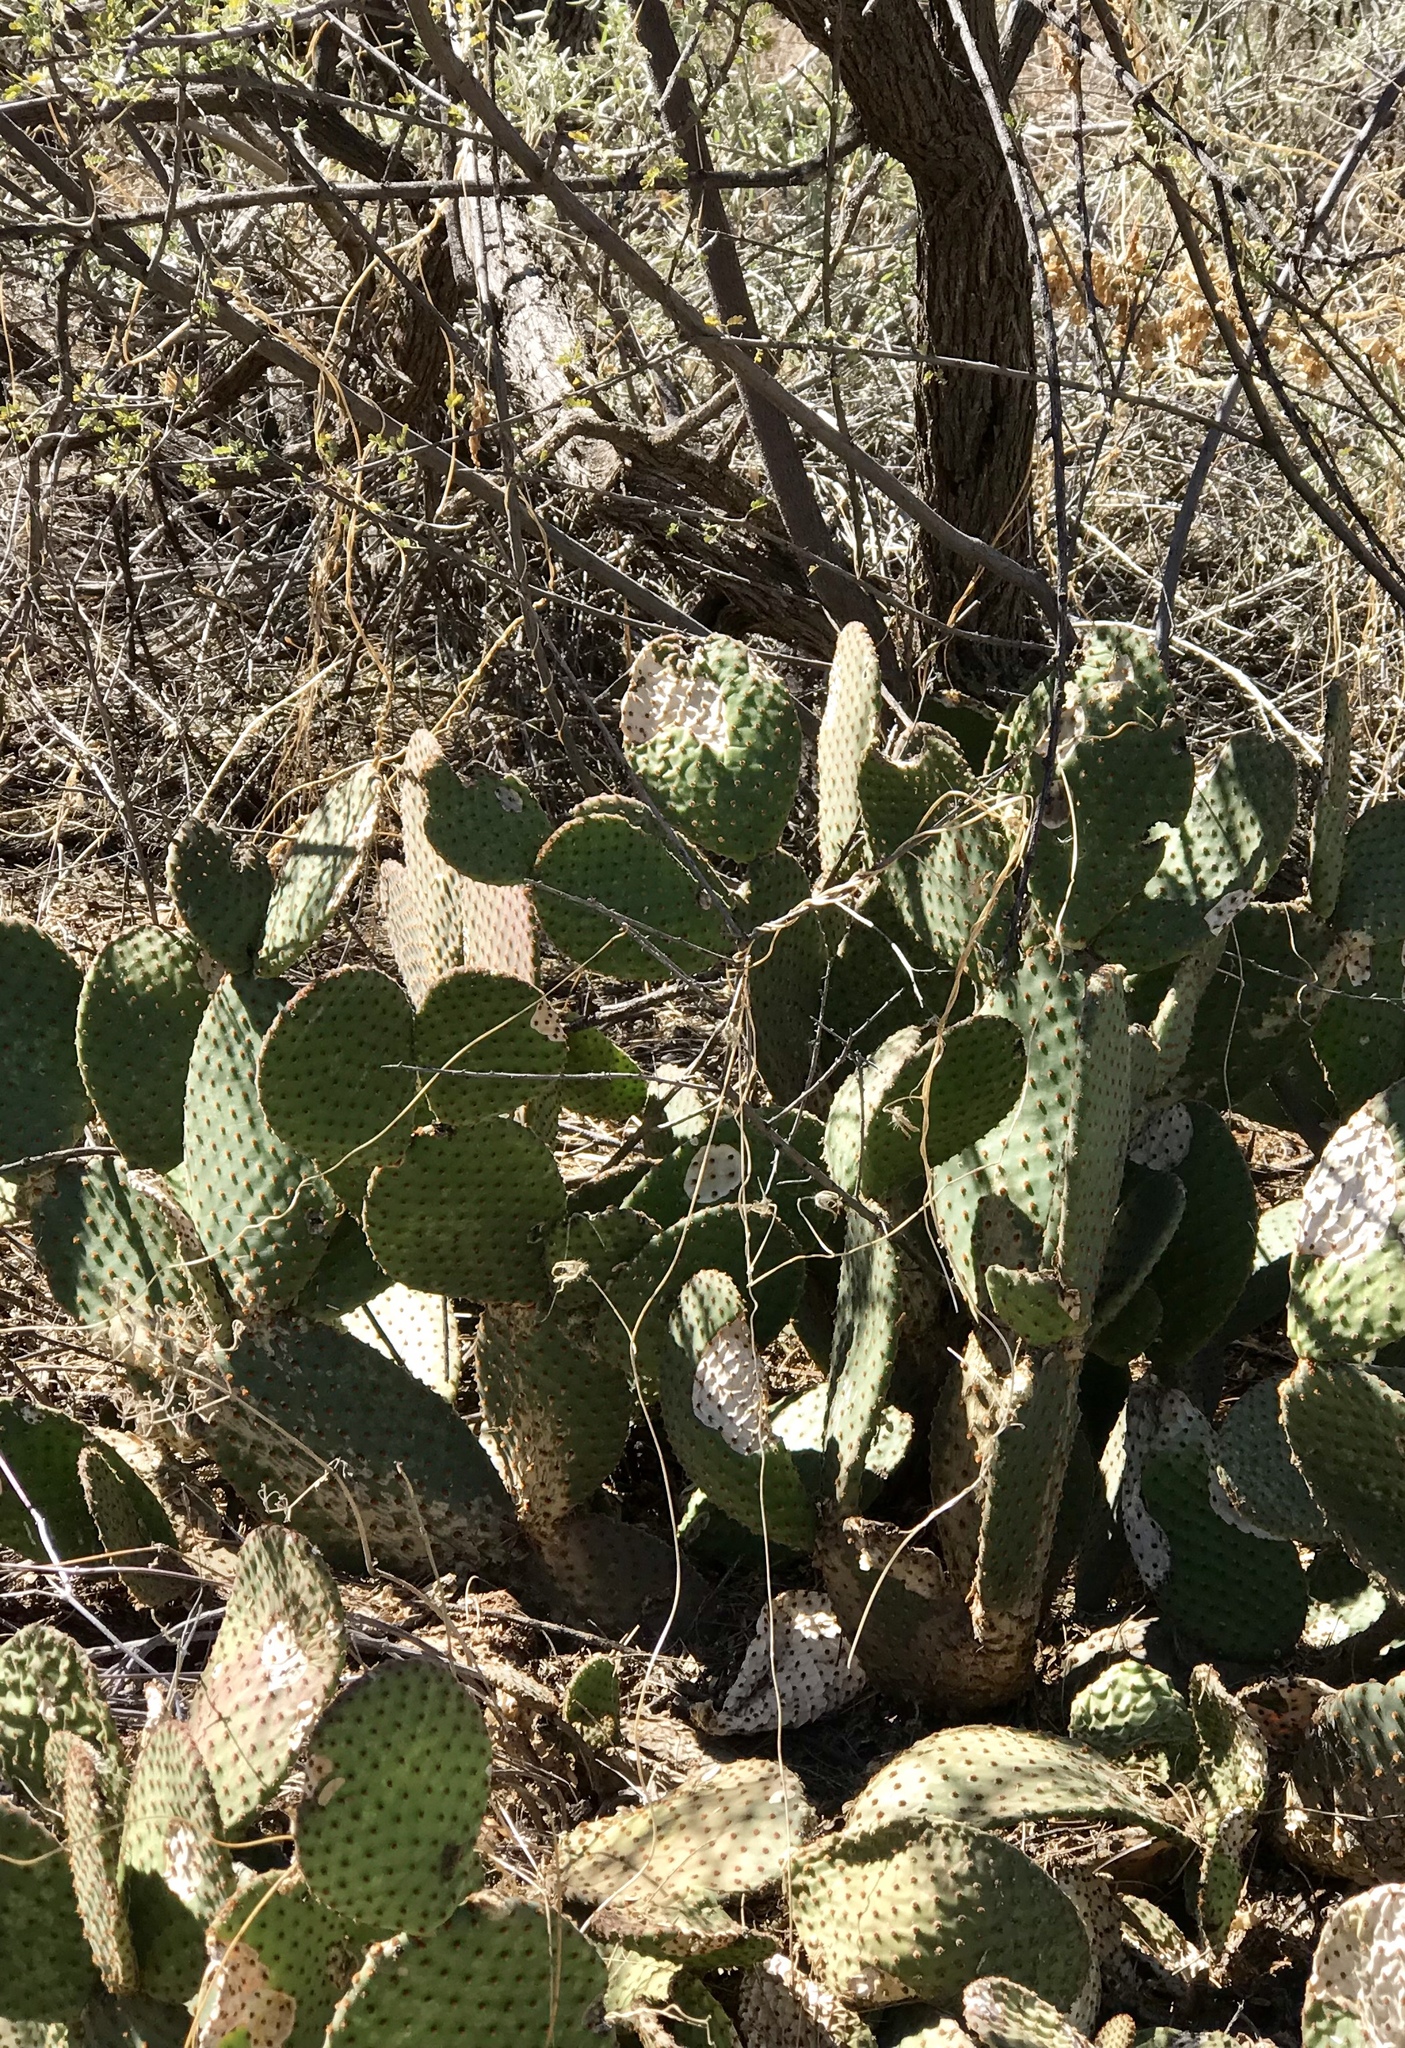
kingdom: Plantae
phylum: Tracheophyta
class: Magnoliopsida
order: Caryophyllales
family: Cactaceae
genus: Opuntia
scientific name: Opuntia microdasys
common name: Angel's-wings
